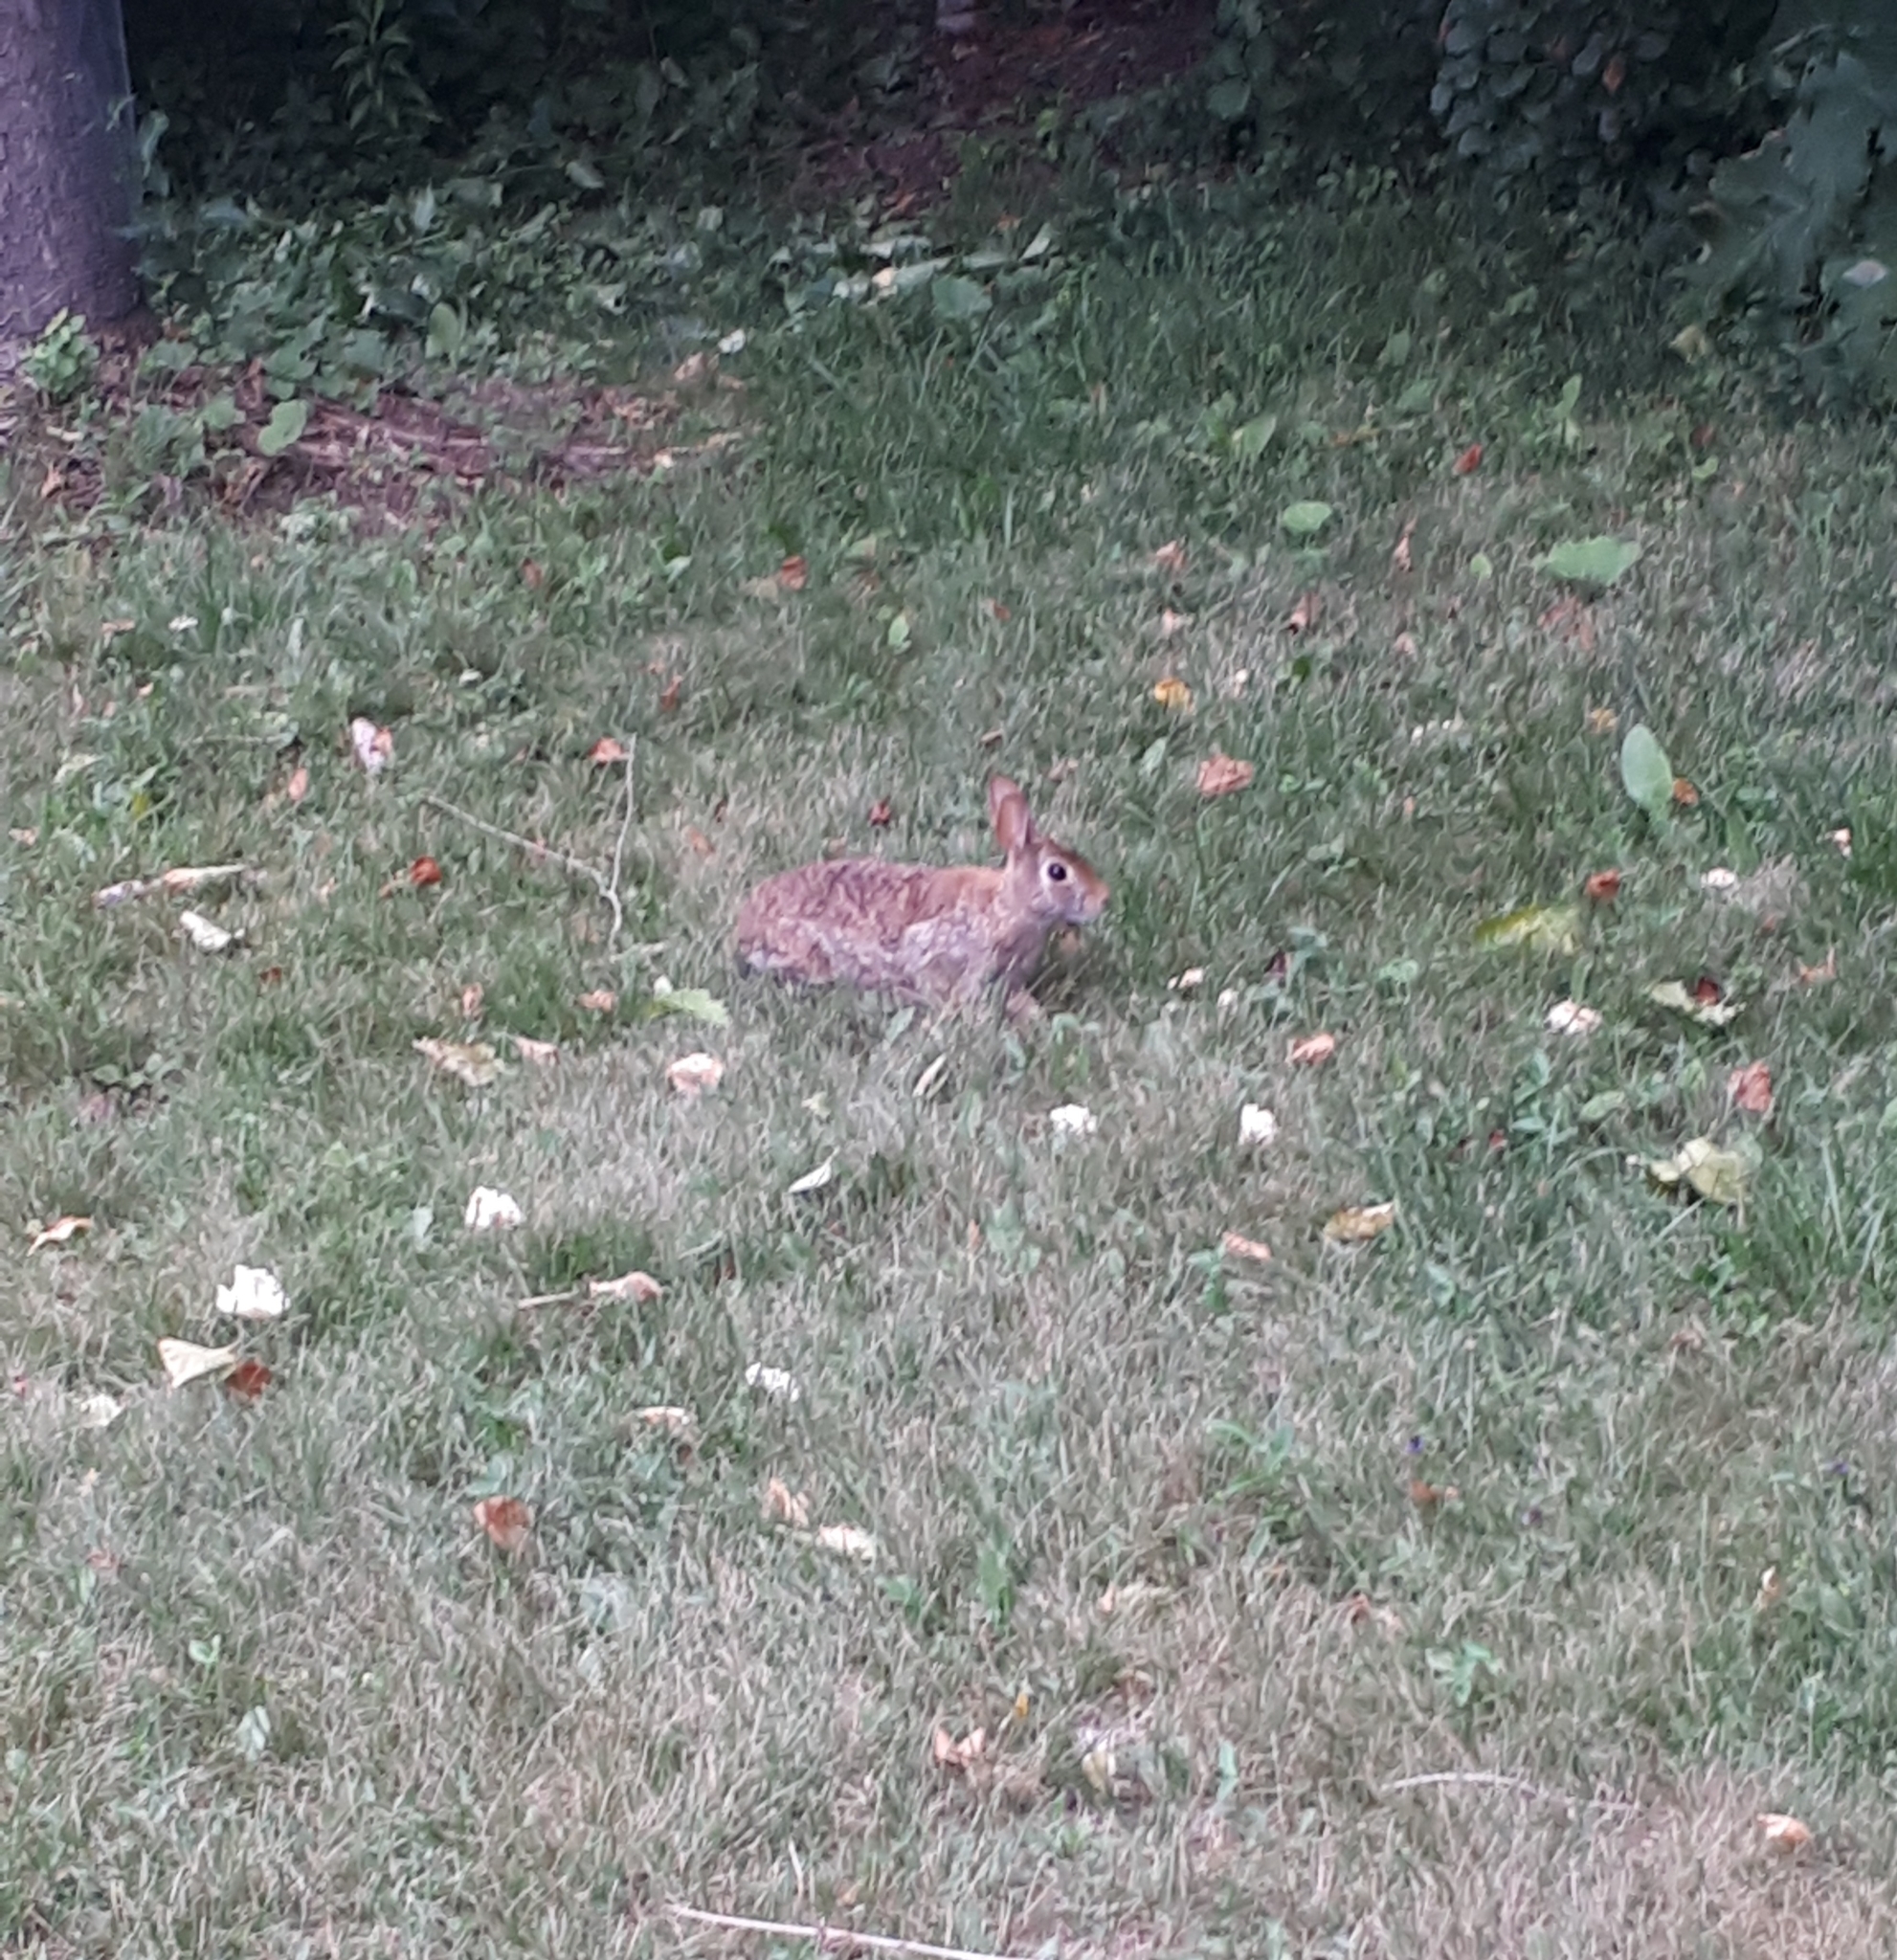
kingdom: Animalia
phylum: Chordata
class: Mammalia
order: Lagomorpha
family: Leporidae
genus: Sylvilagus
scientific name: Sylvilagus floridanus
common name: Eastern cottontail
